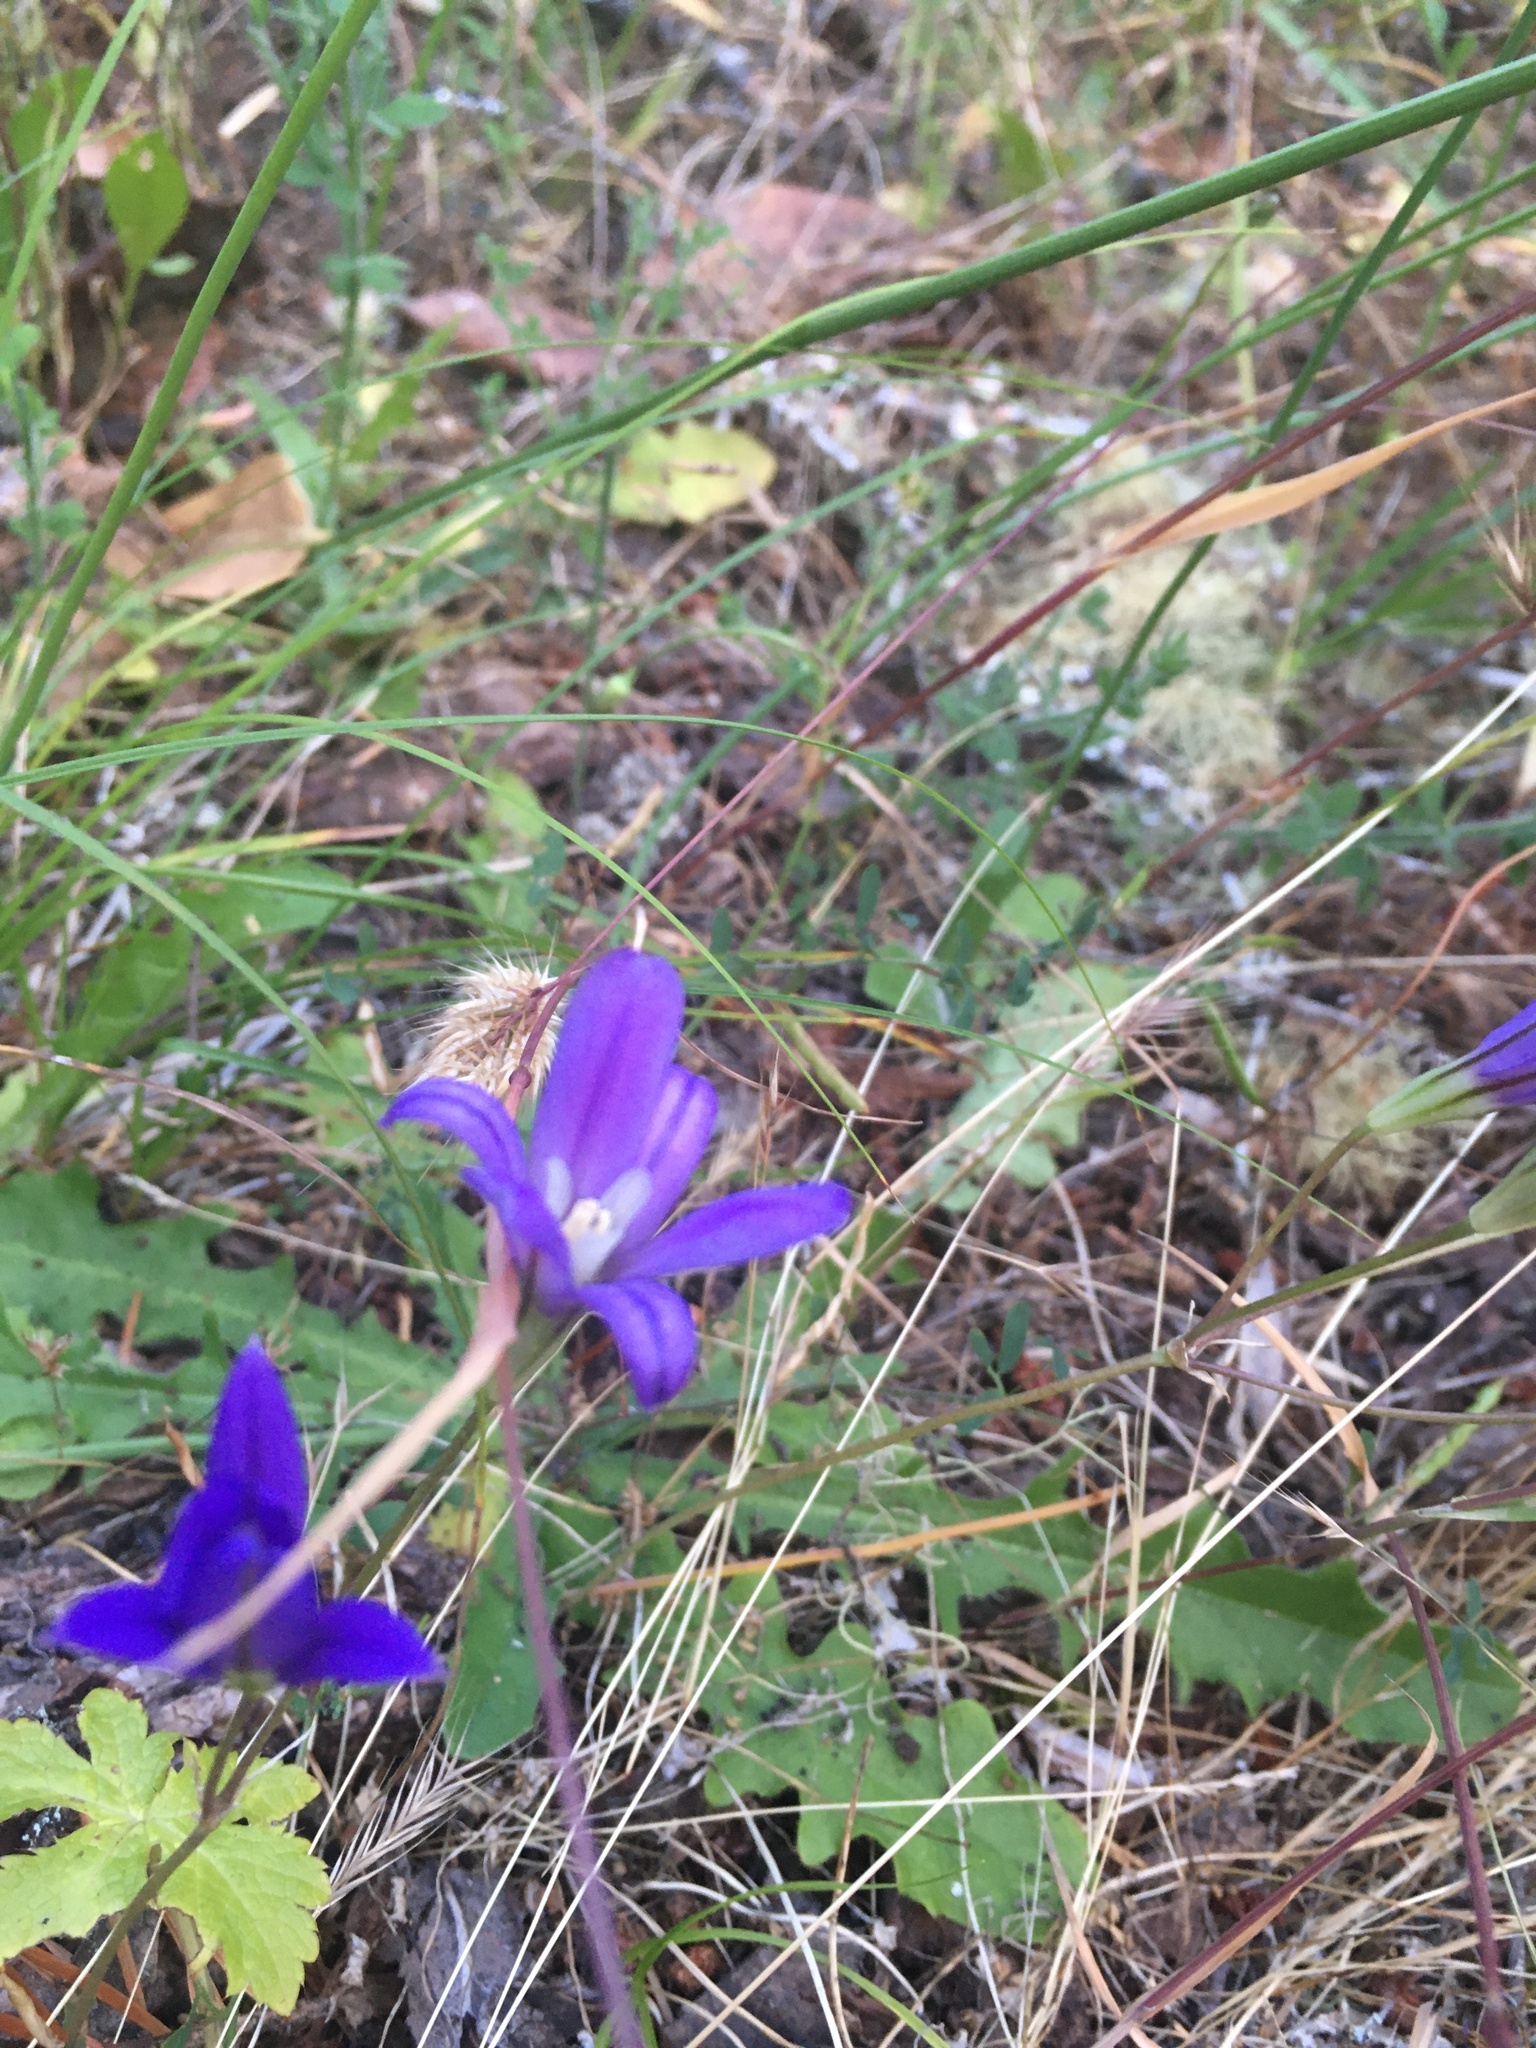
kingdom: Plantae
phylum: Tracheophyta
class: Liliopsida
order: Asparagales
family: Asparagaceae
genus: Brodiaea
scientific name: Brodiaea coronaria
